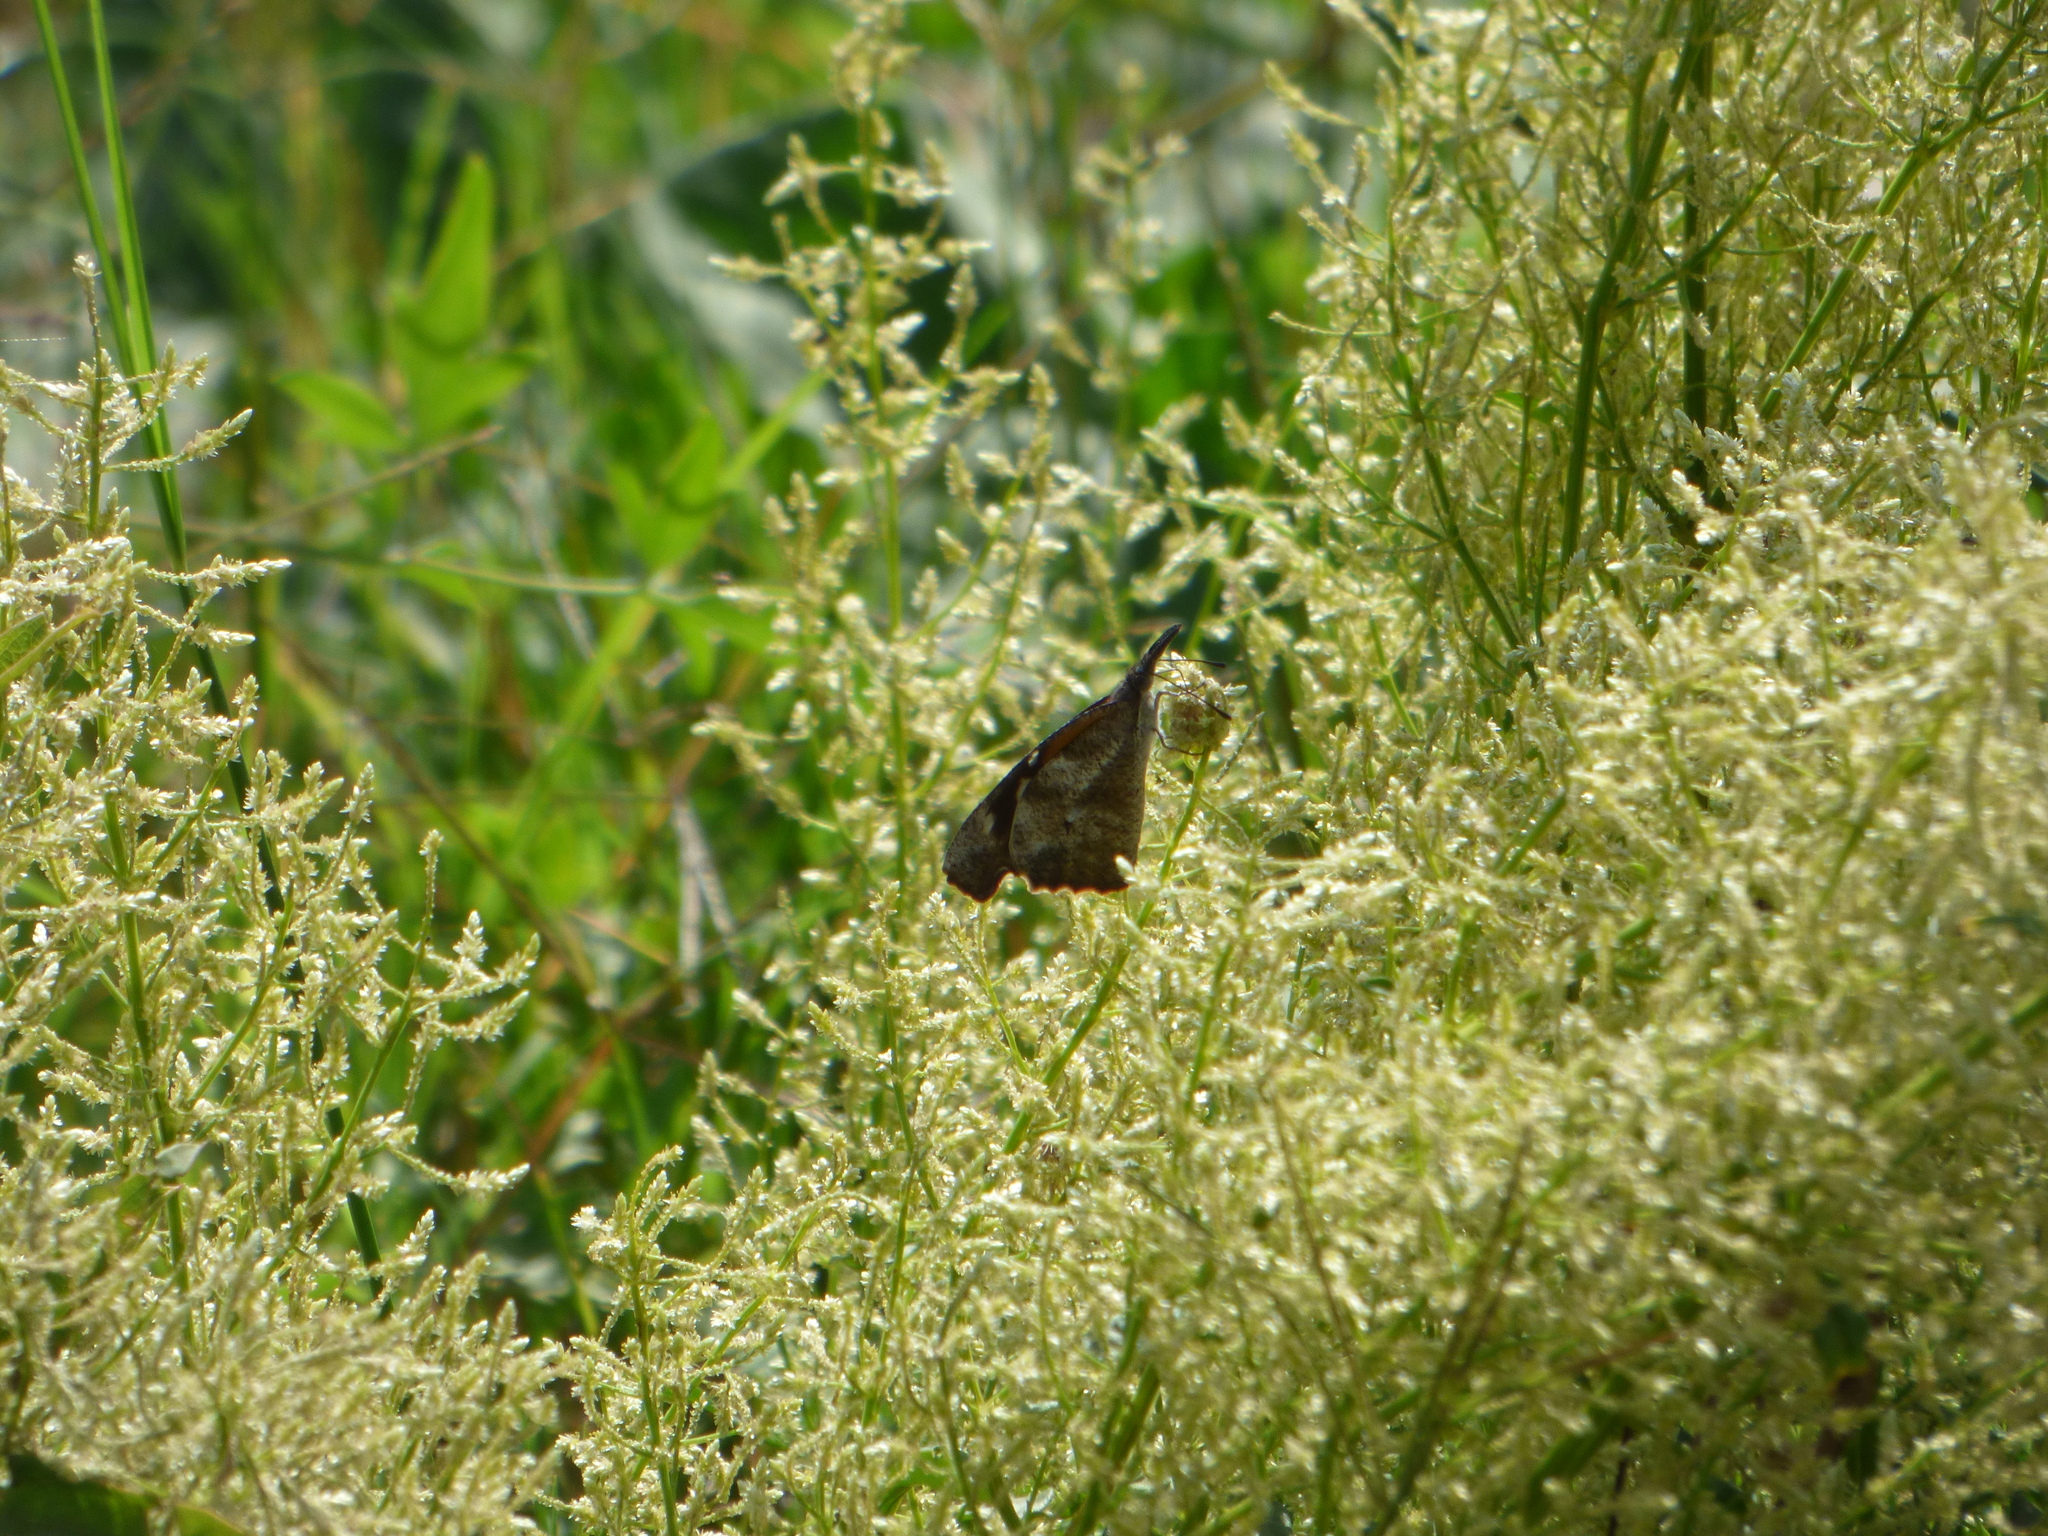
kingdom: Animalia
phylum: Arthropoda
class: Insecta
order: Lepidoptera
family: Nymphalidae
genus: Libytheana
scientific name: Libytheana carinenta
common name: American snout
